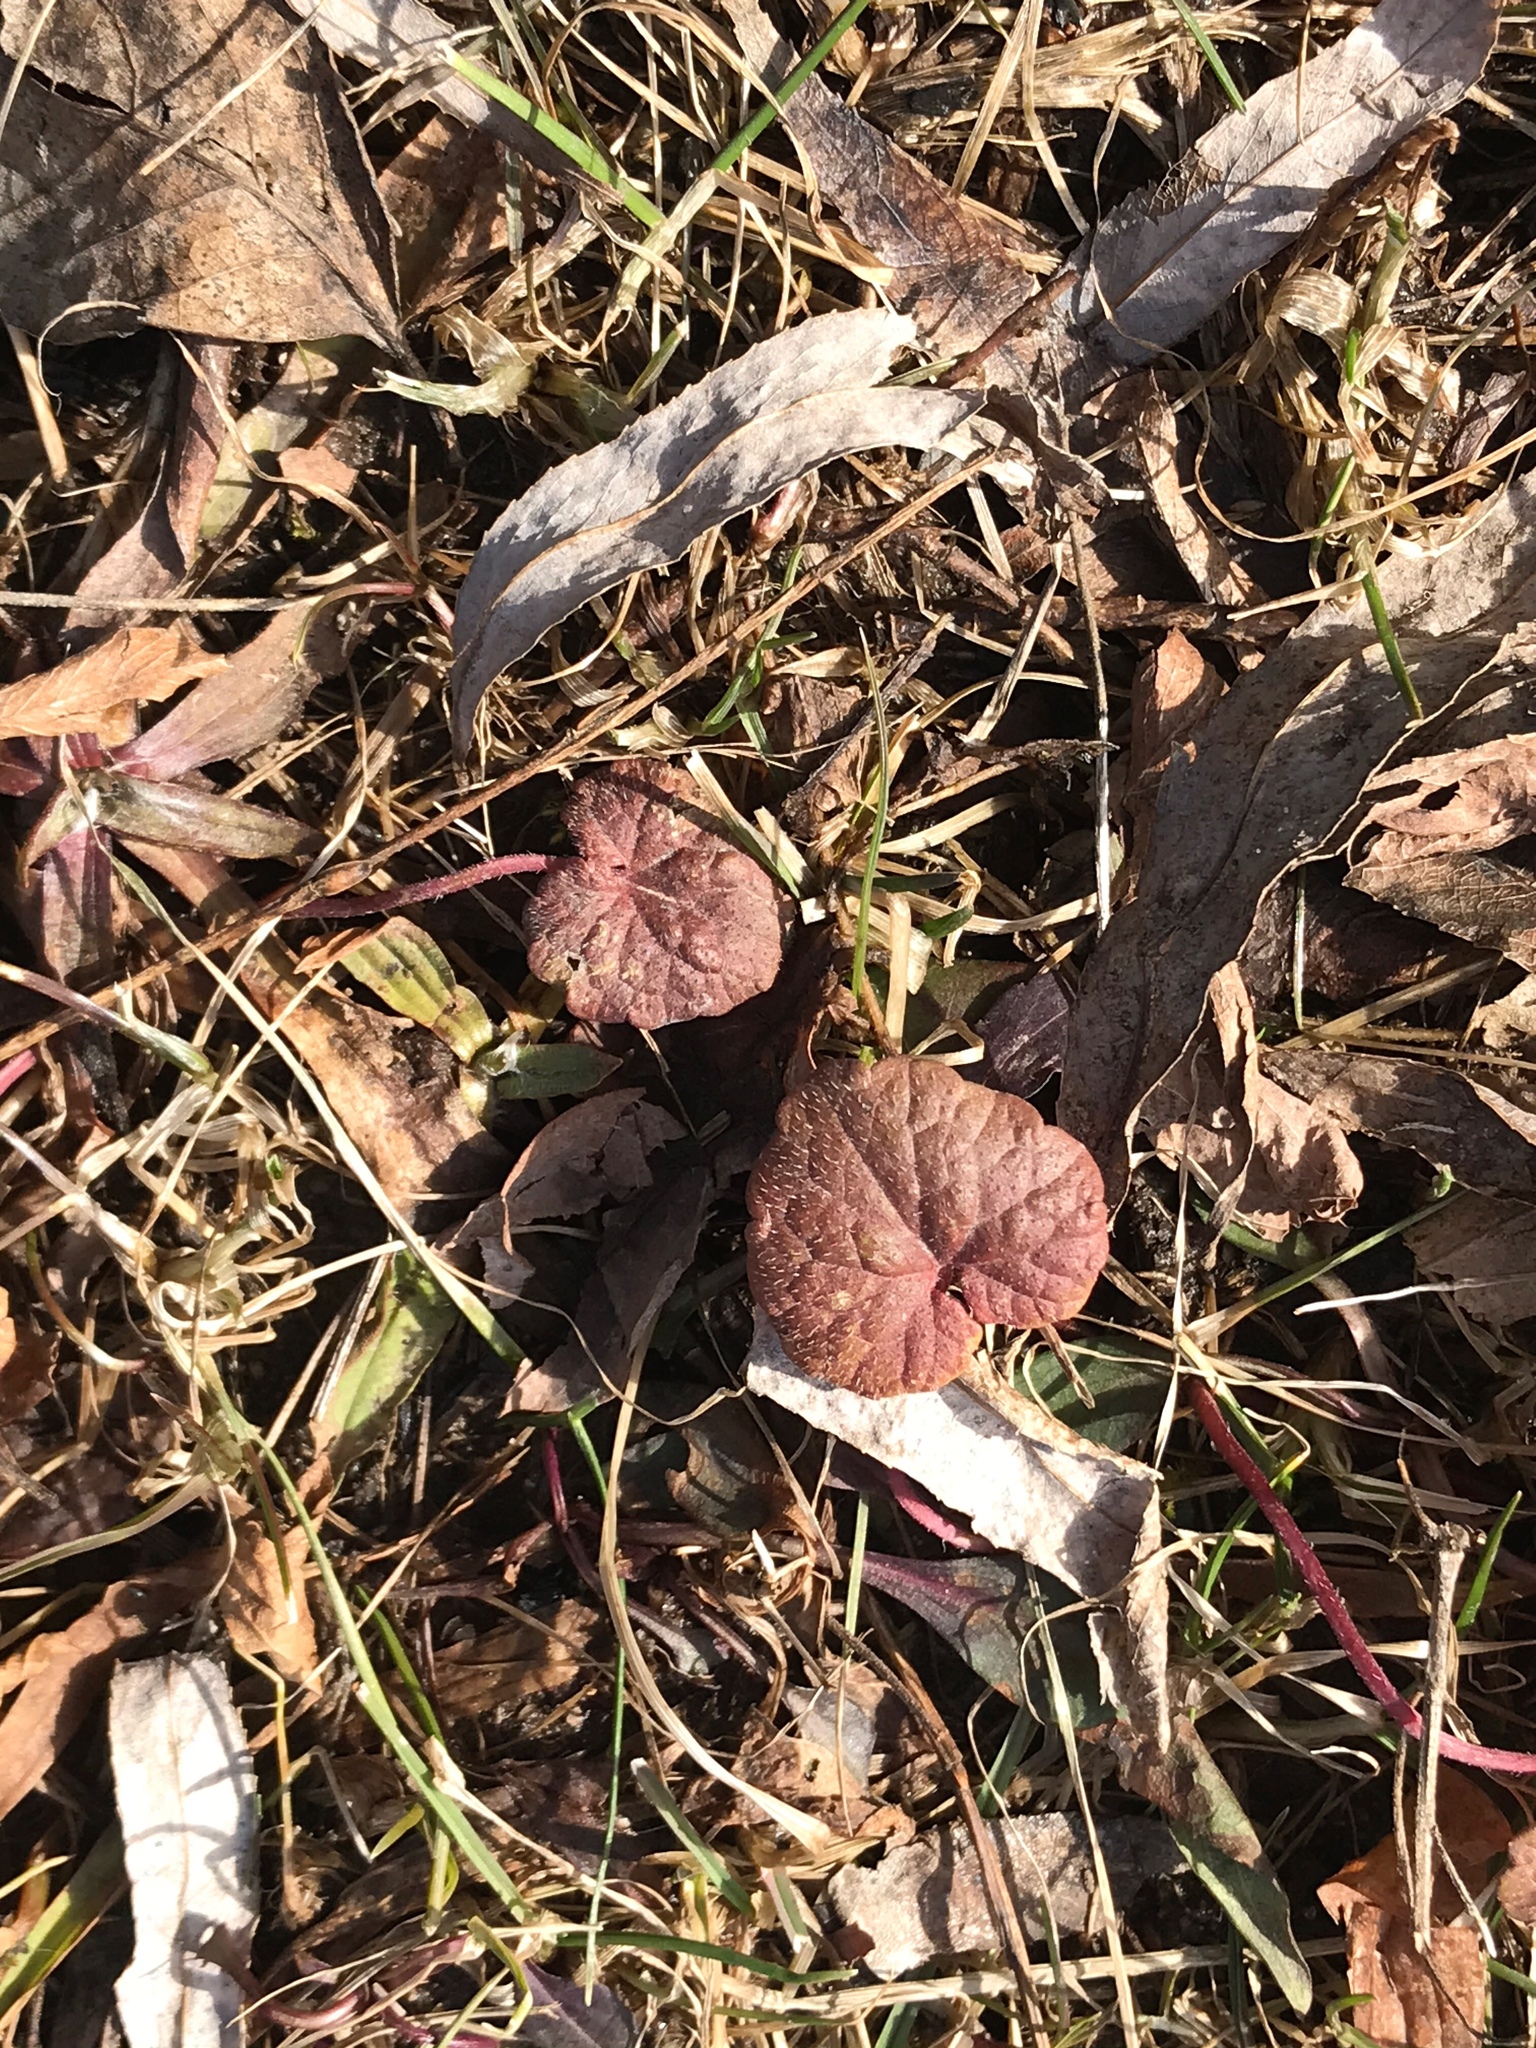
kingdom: Plantae
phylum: Tracheophyta
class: Magnoliopsida
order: Lamiales
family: Lamiaceae
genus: Glechoma
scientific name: Glechoma hederacea
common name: Ground ivy
